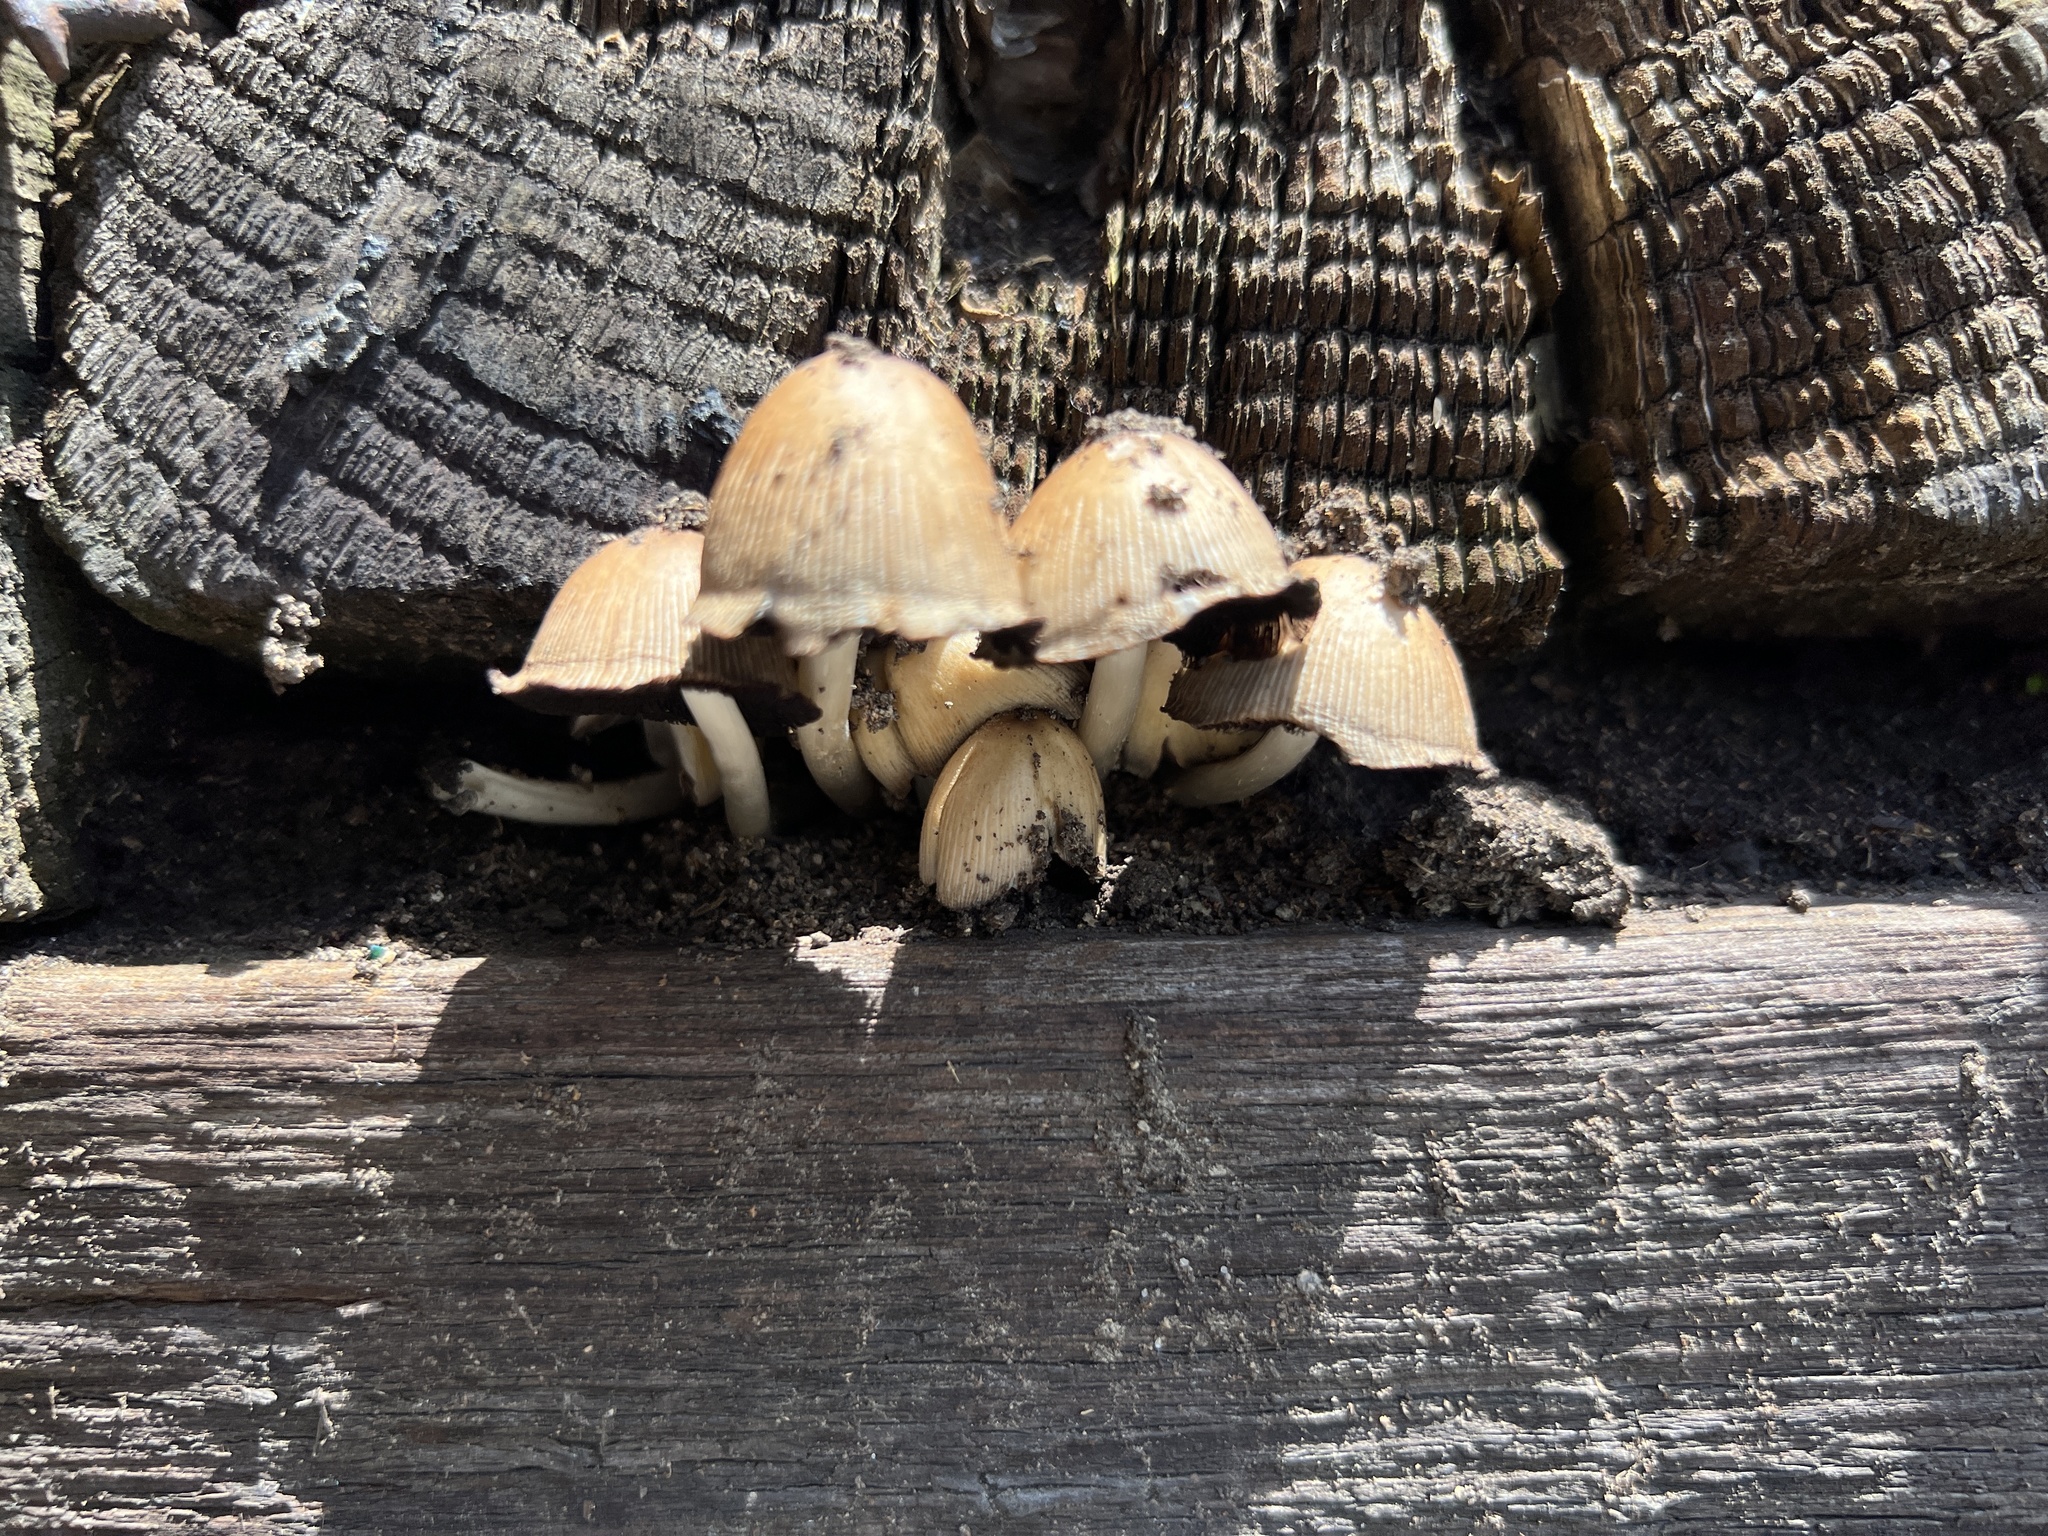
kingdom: Fungi
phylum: Basidiomycota
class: Agaricomycetes
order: Agaricales
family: Psathyrellaceae
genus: Coprinellus
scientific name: Coprinellus micaceus
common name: Glistening ink-cap
